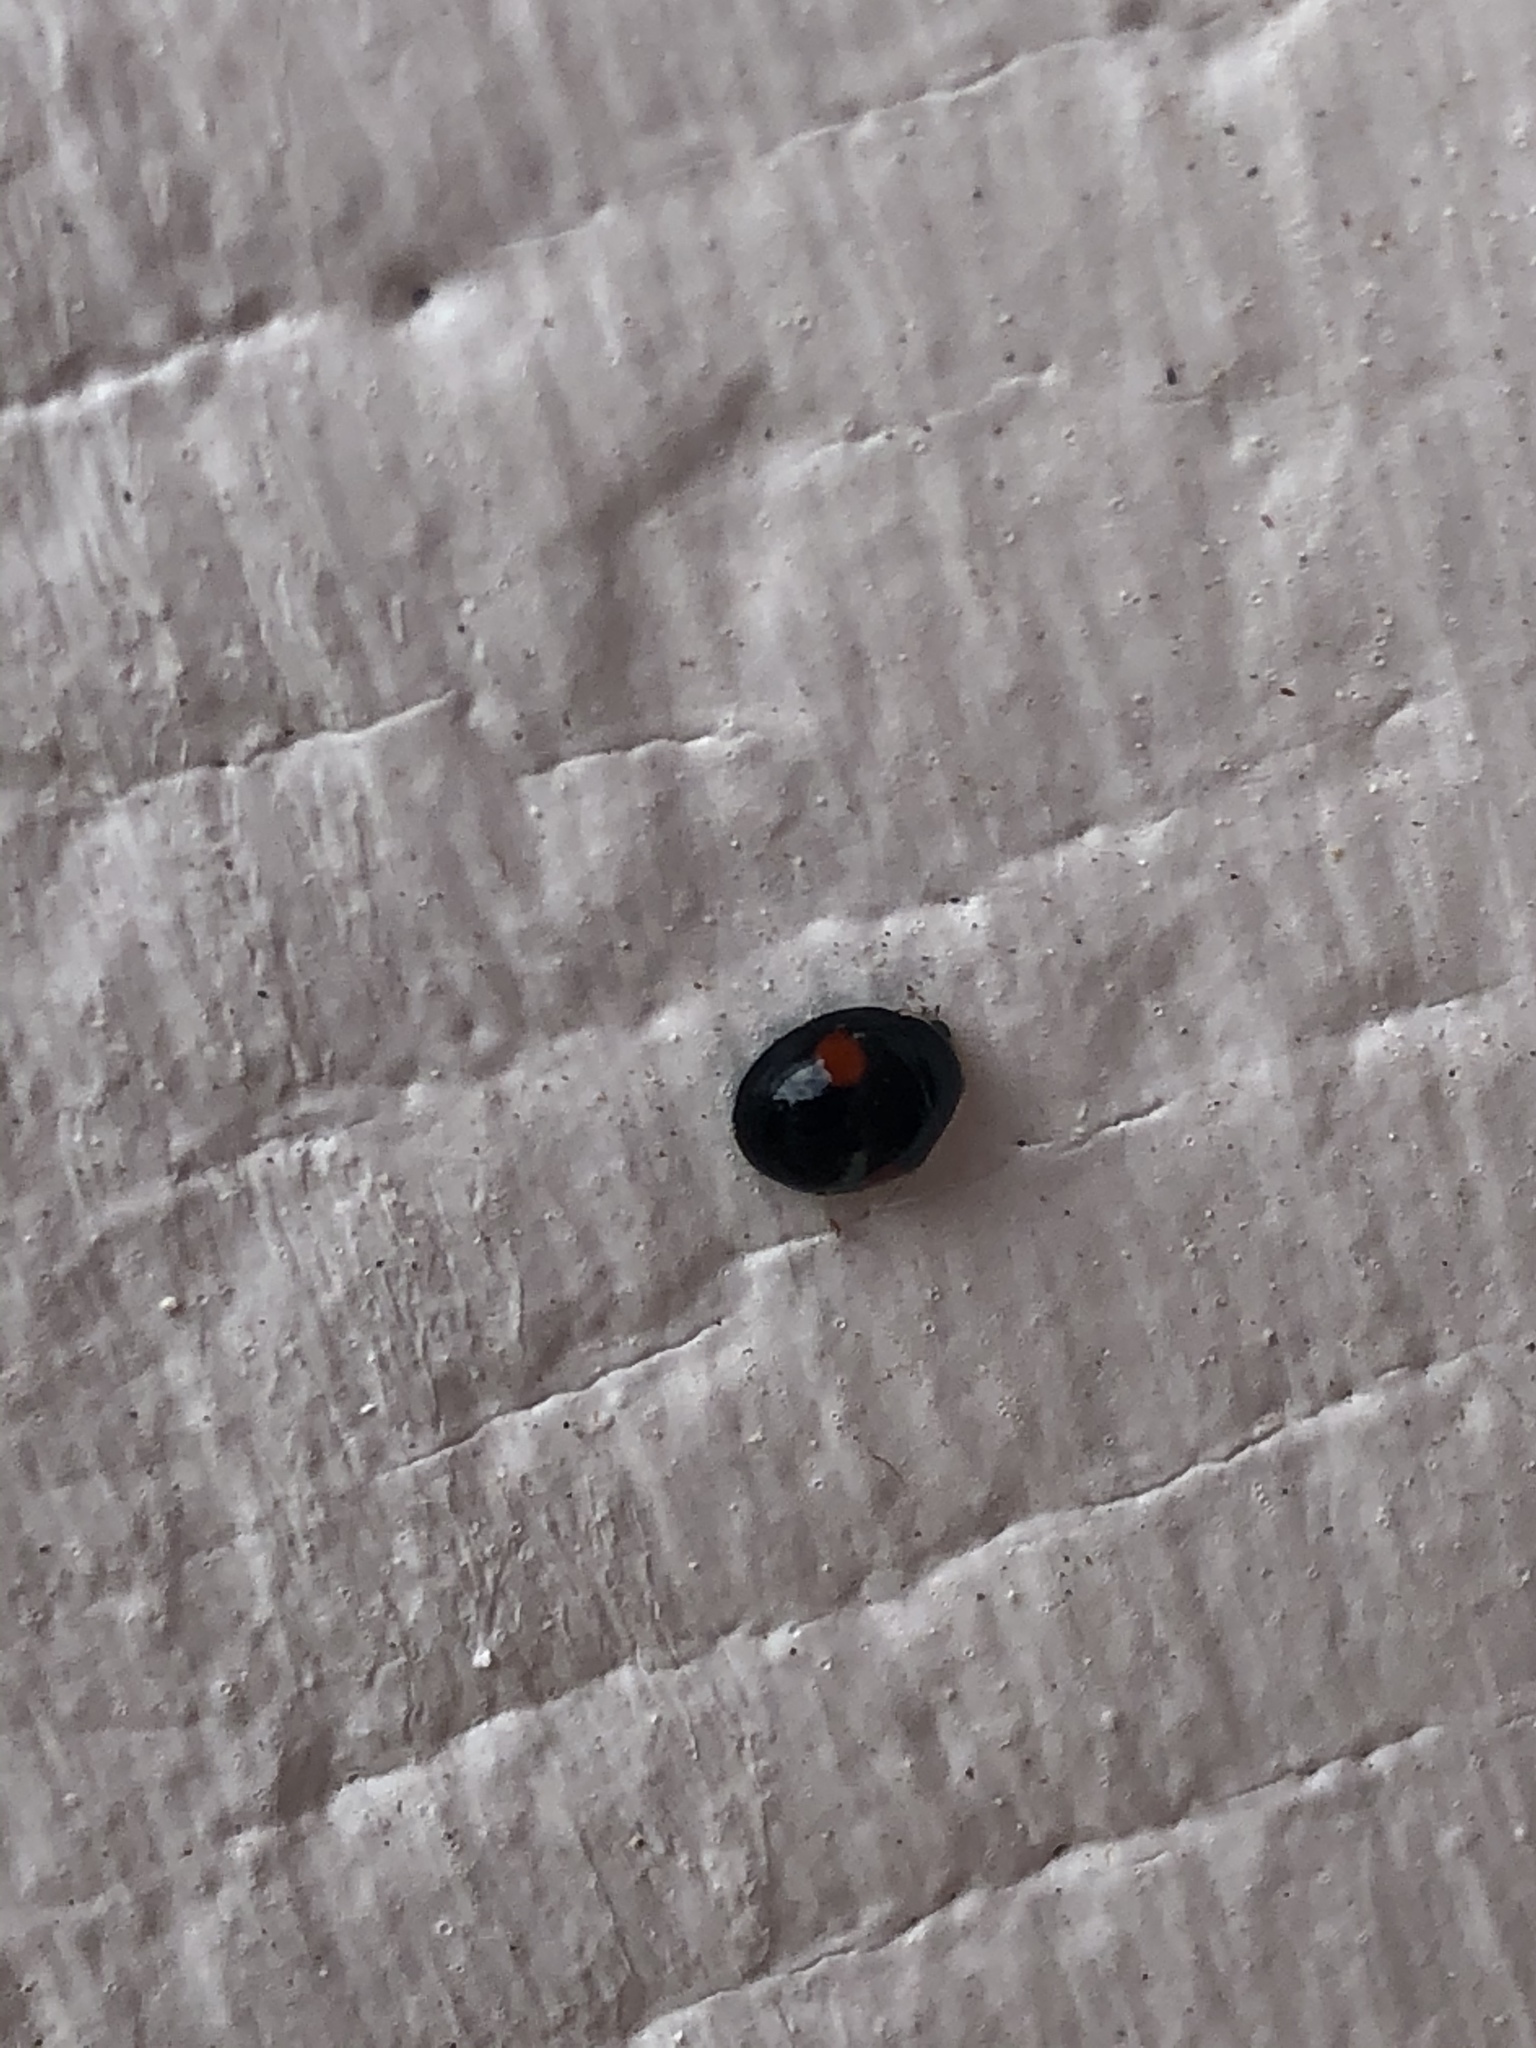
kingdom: Animalia
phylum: Arthropoda
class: Insecta
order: Coleoptera
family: Coccinellidae
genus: Chilocorus
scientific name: Chilocorus stigma
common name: Twicestabbed lady beetle
